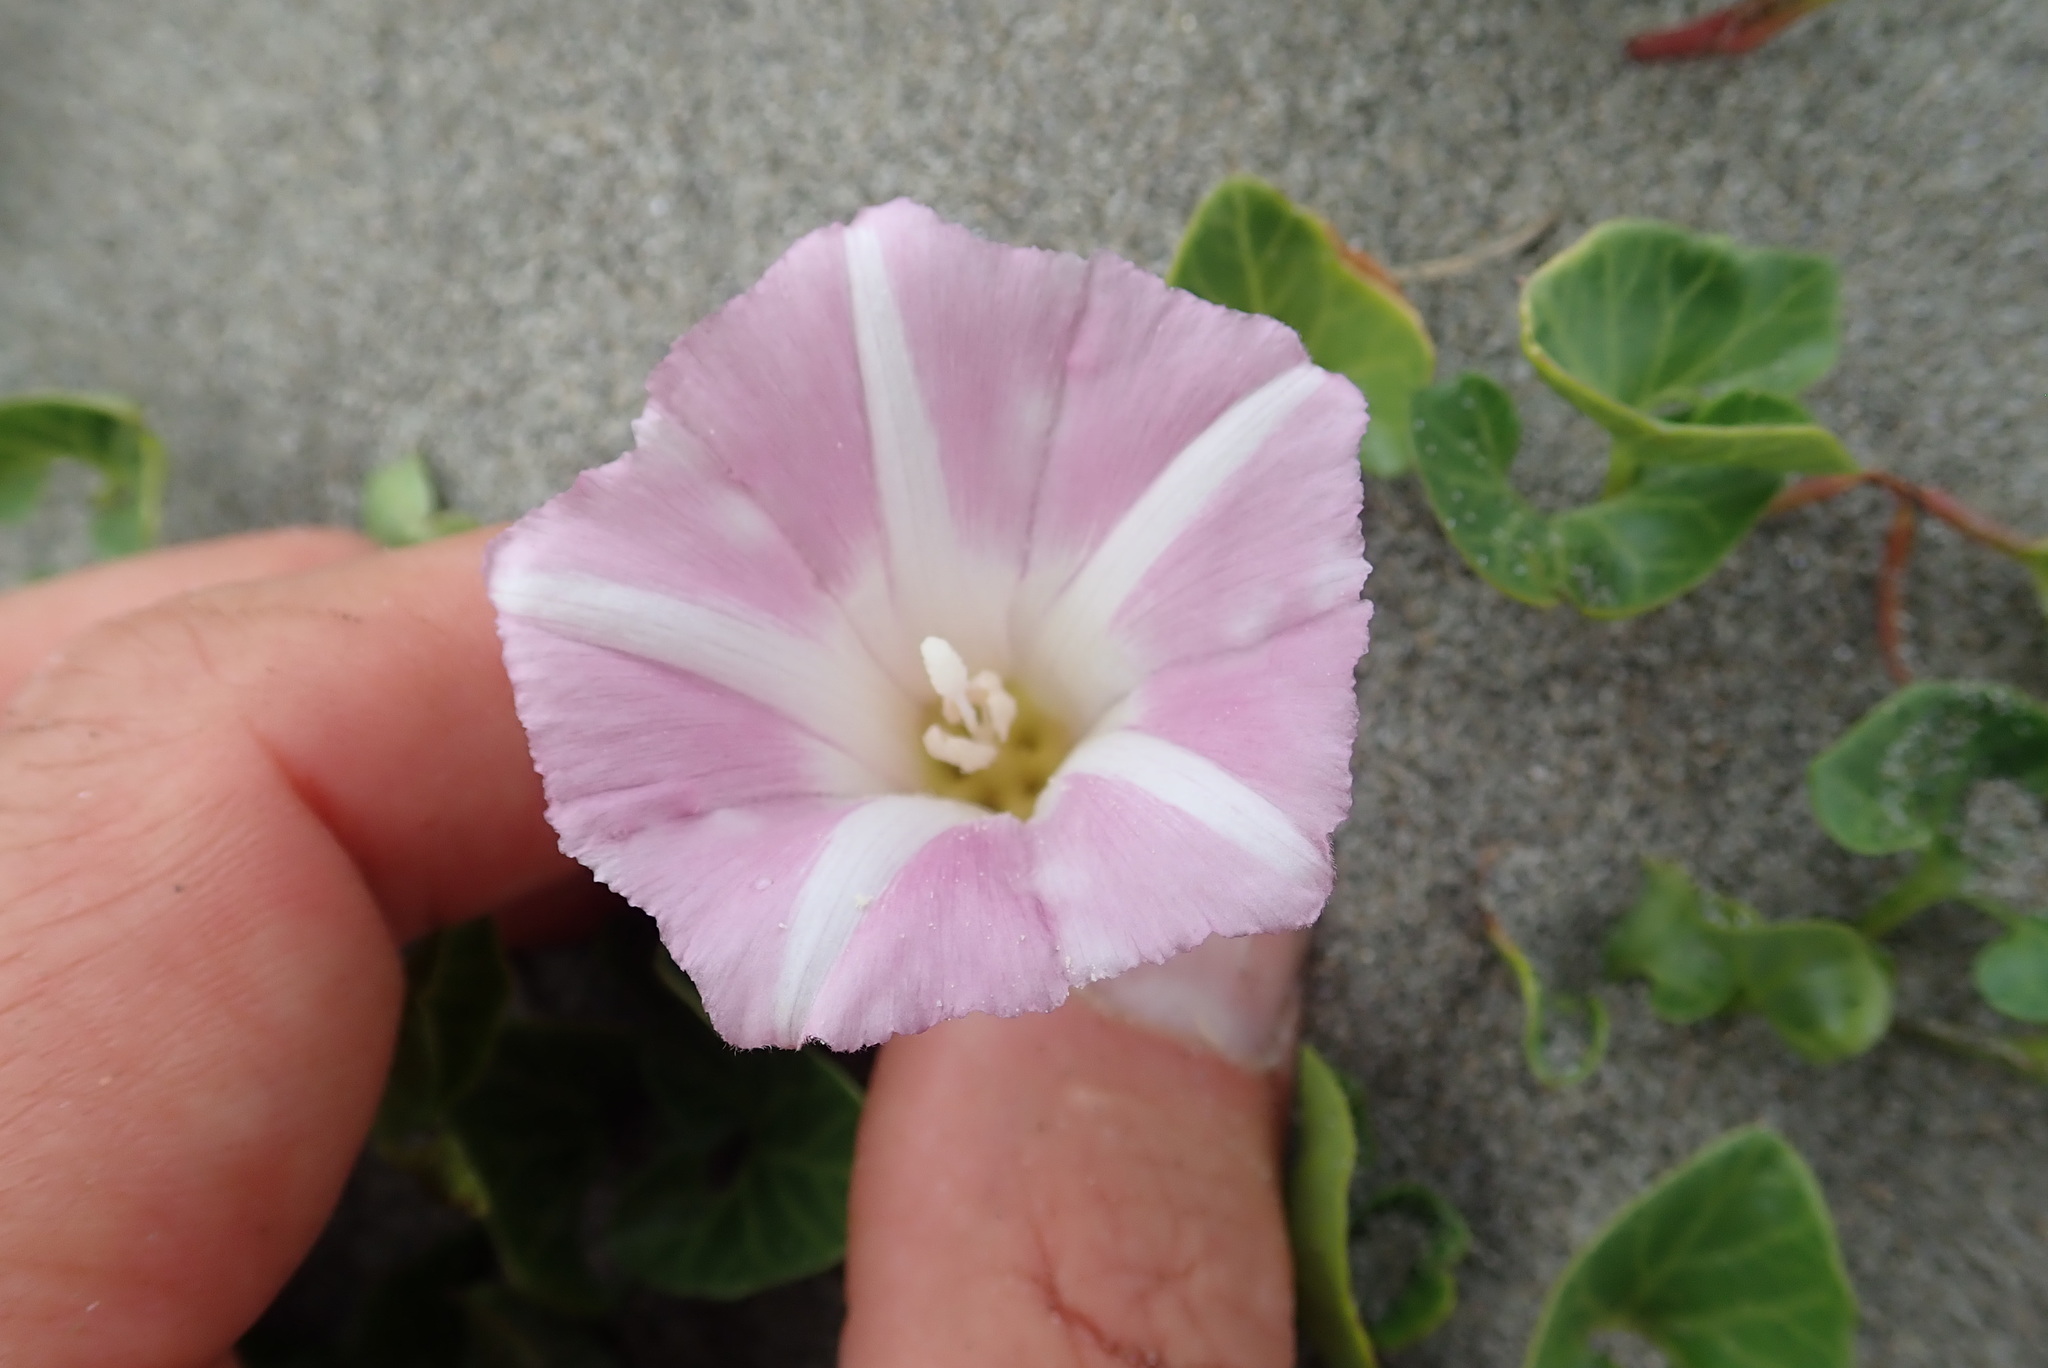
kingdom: Plantae
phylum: Tracheophyta
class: Magnoliopsida
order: Solanales
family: Convolvulaceae
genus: Calystegia
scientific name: Calystegia soldanella
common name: Sea bindweed
